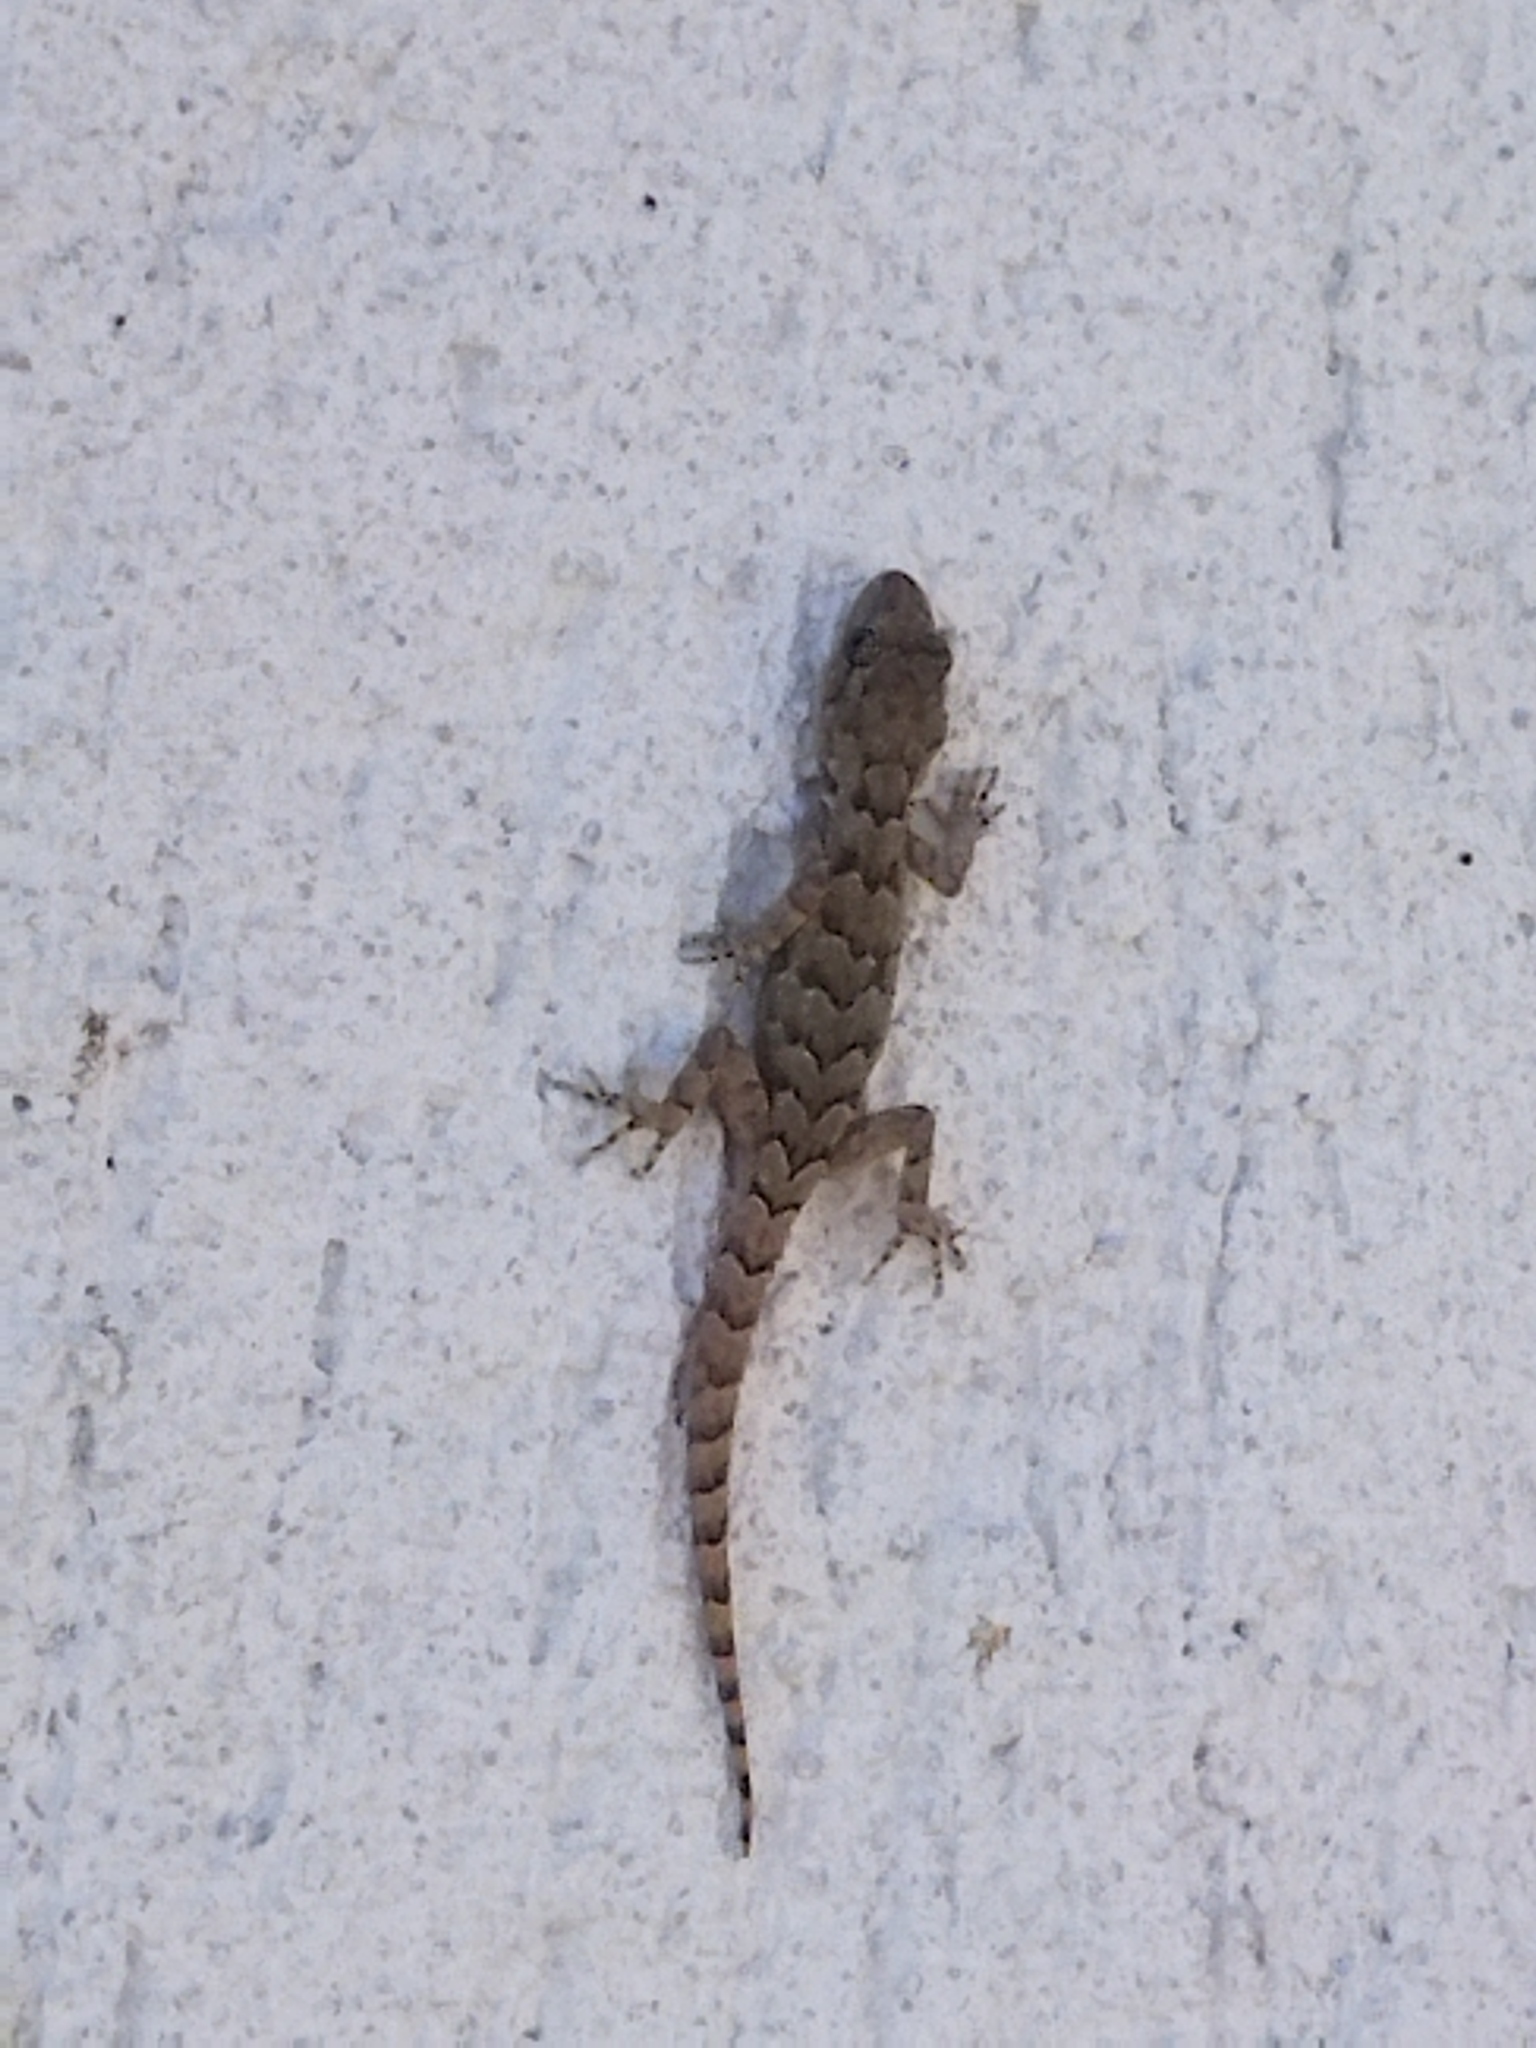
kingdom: Animalia
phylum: Chordata
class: Squamata
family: Gekkonidae
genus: Mediodactylus
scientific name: Mediodactylus kotschyi
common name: Kotschy's gecko
